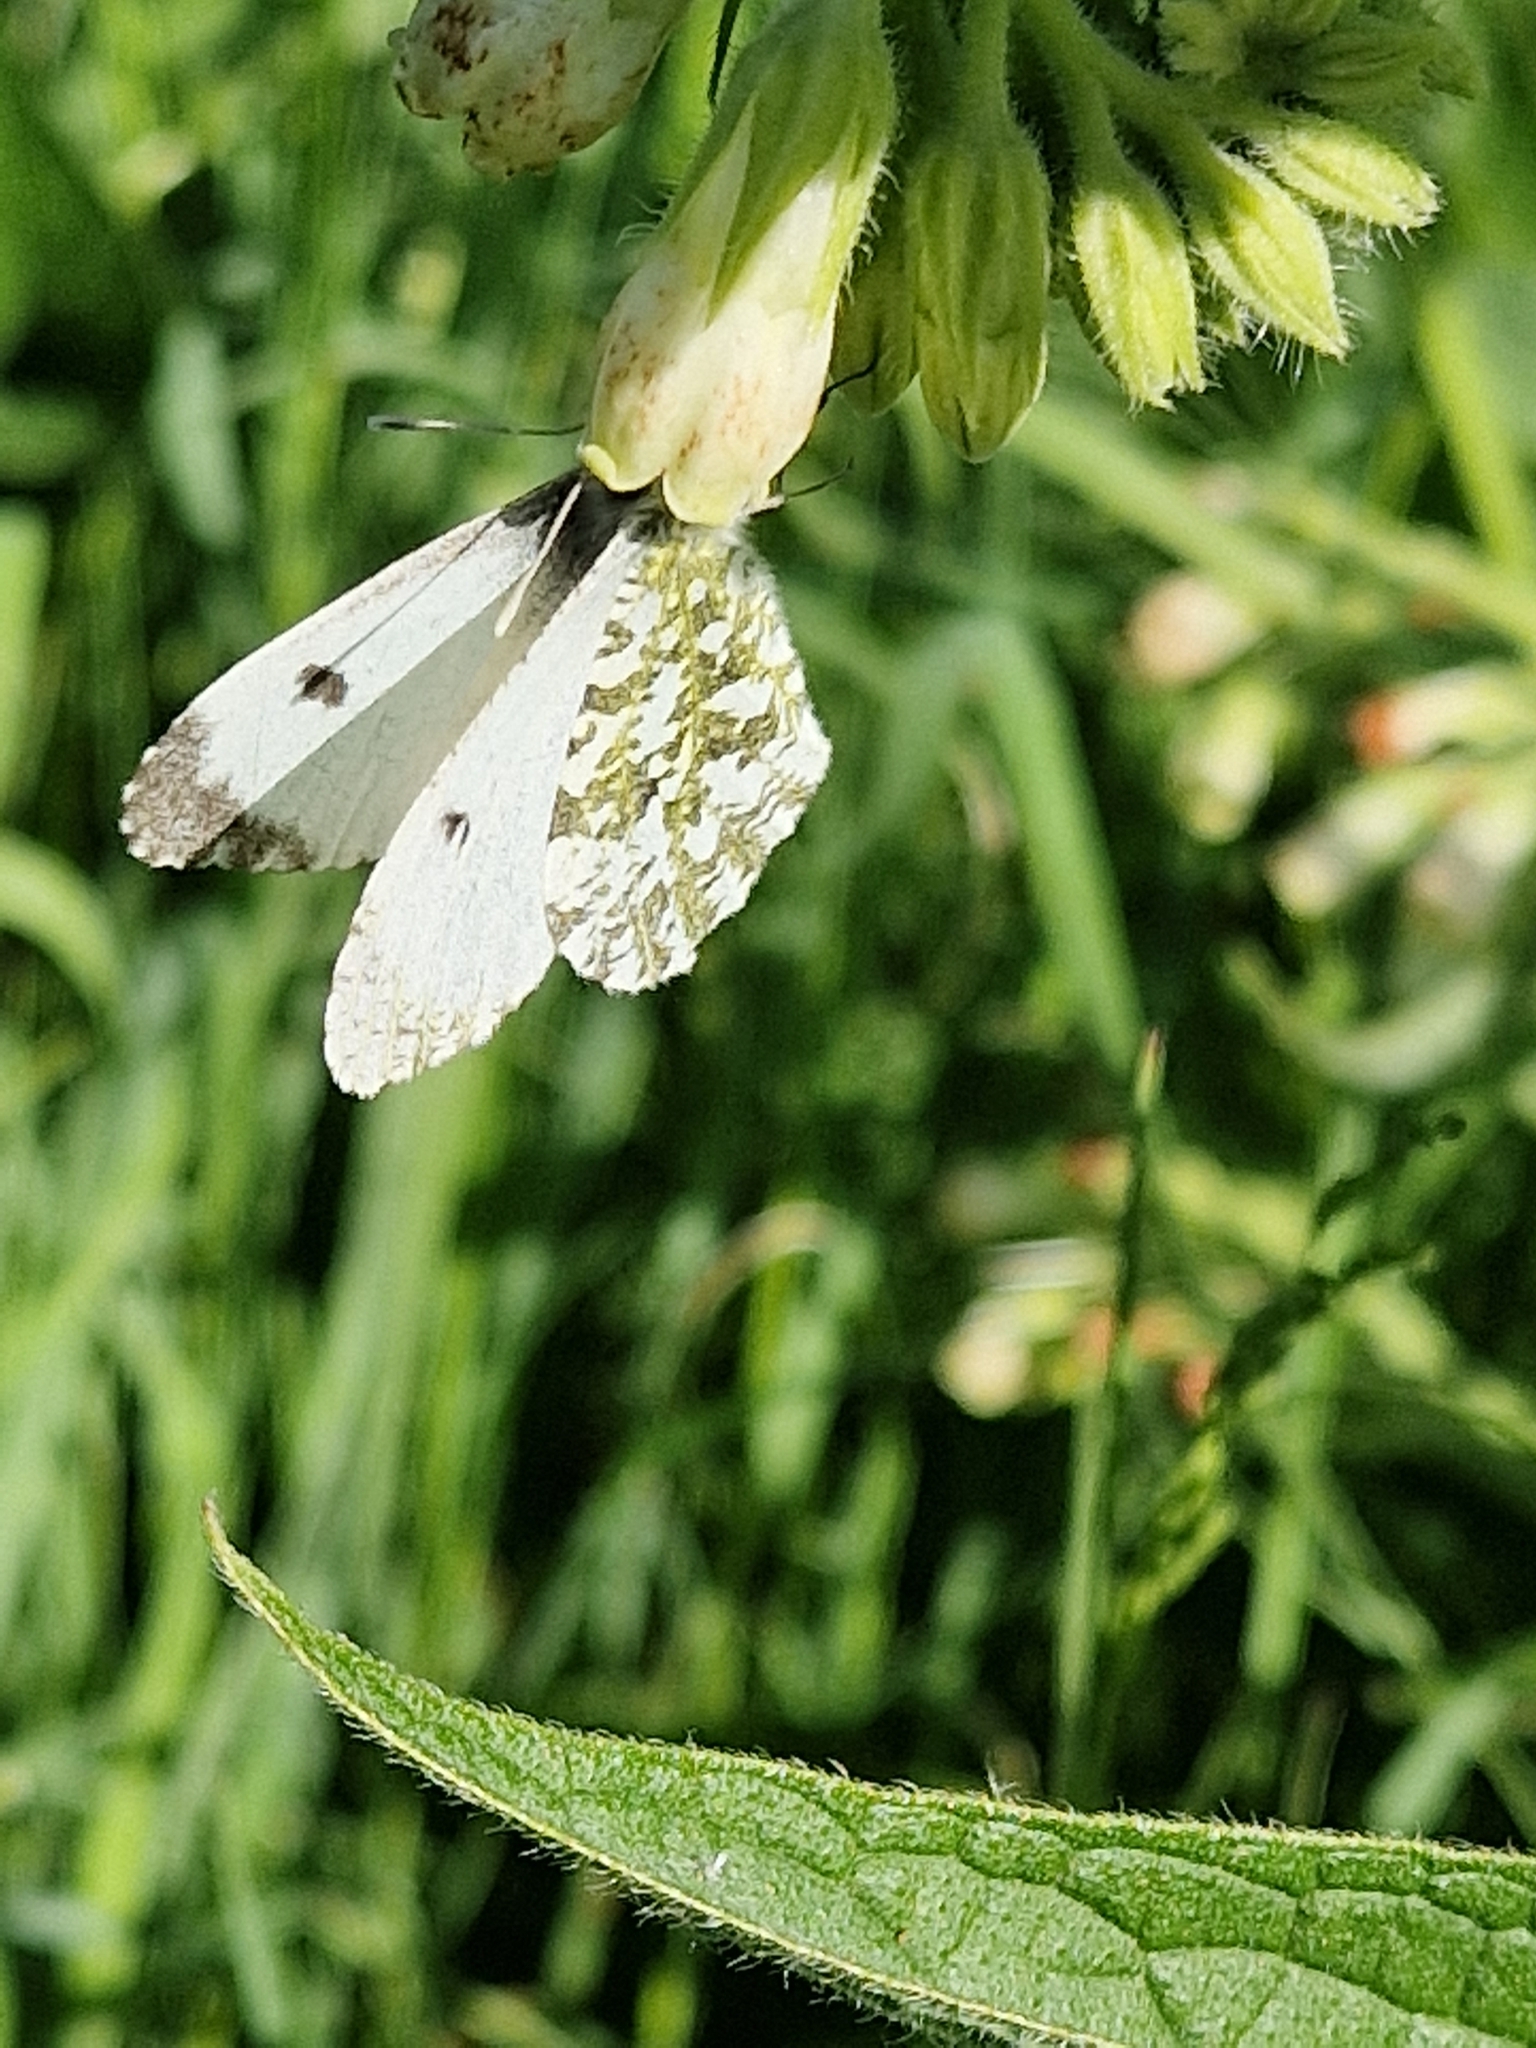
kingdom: Animalia
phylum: Arthropoda
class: Insecta
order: Lepidoptera
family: Pieridae
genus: Anthocharis
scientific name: Anthocharis cardamines
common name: Orange-tip
